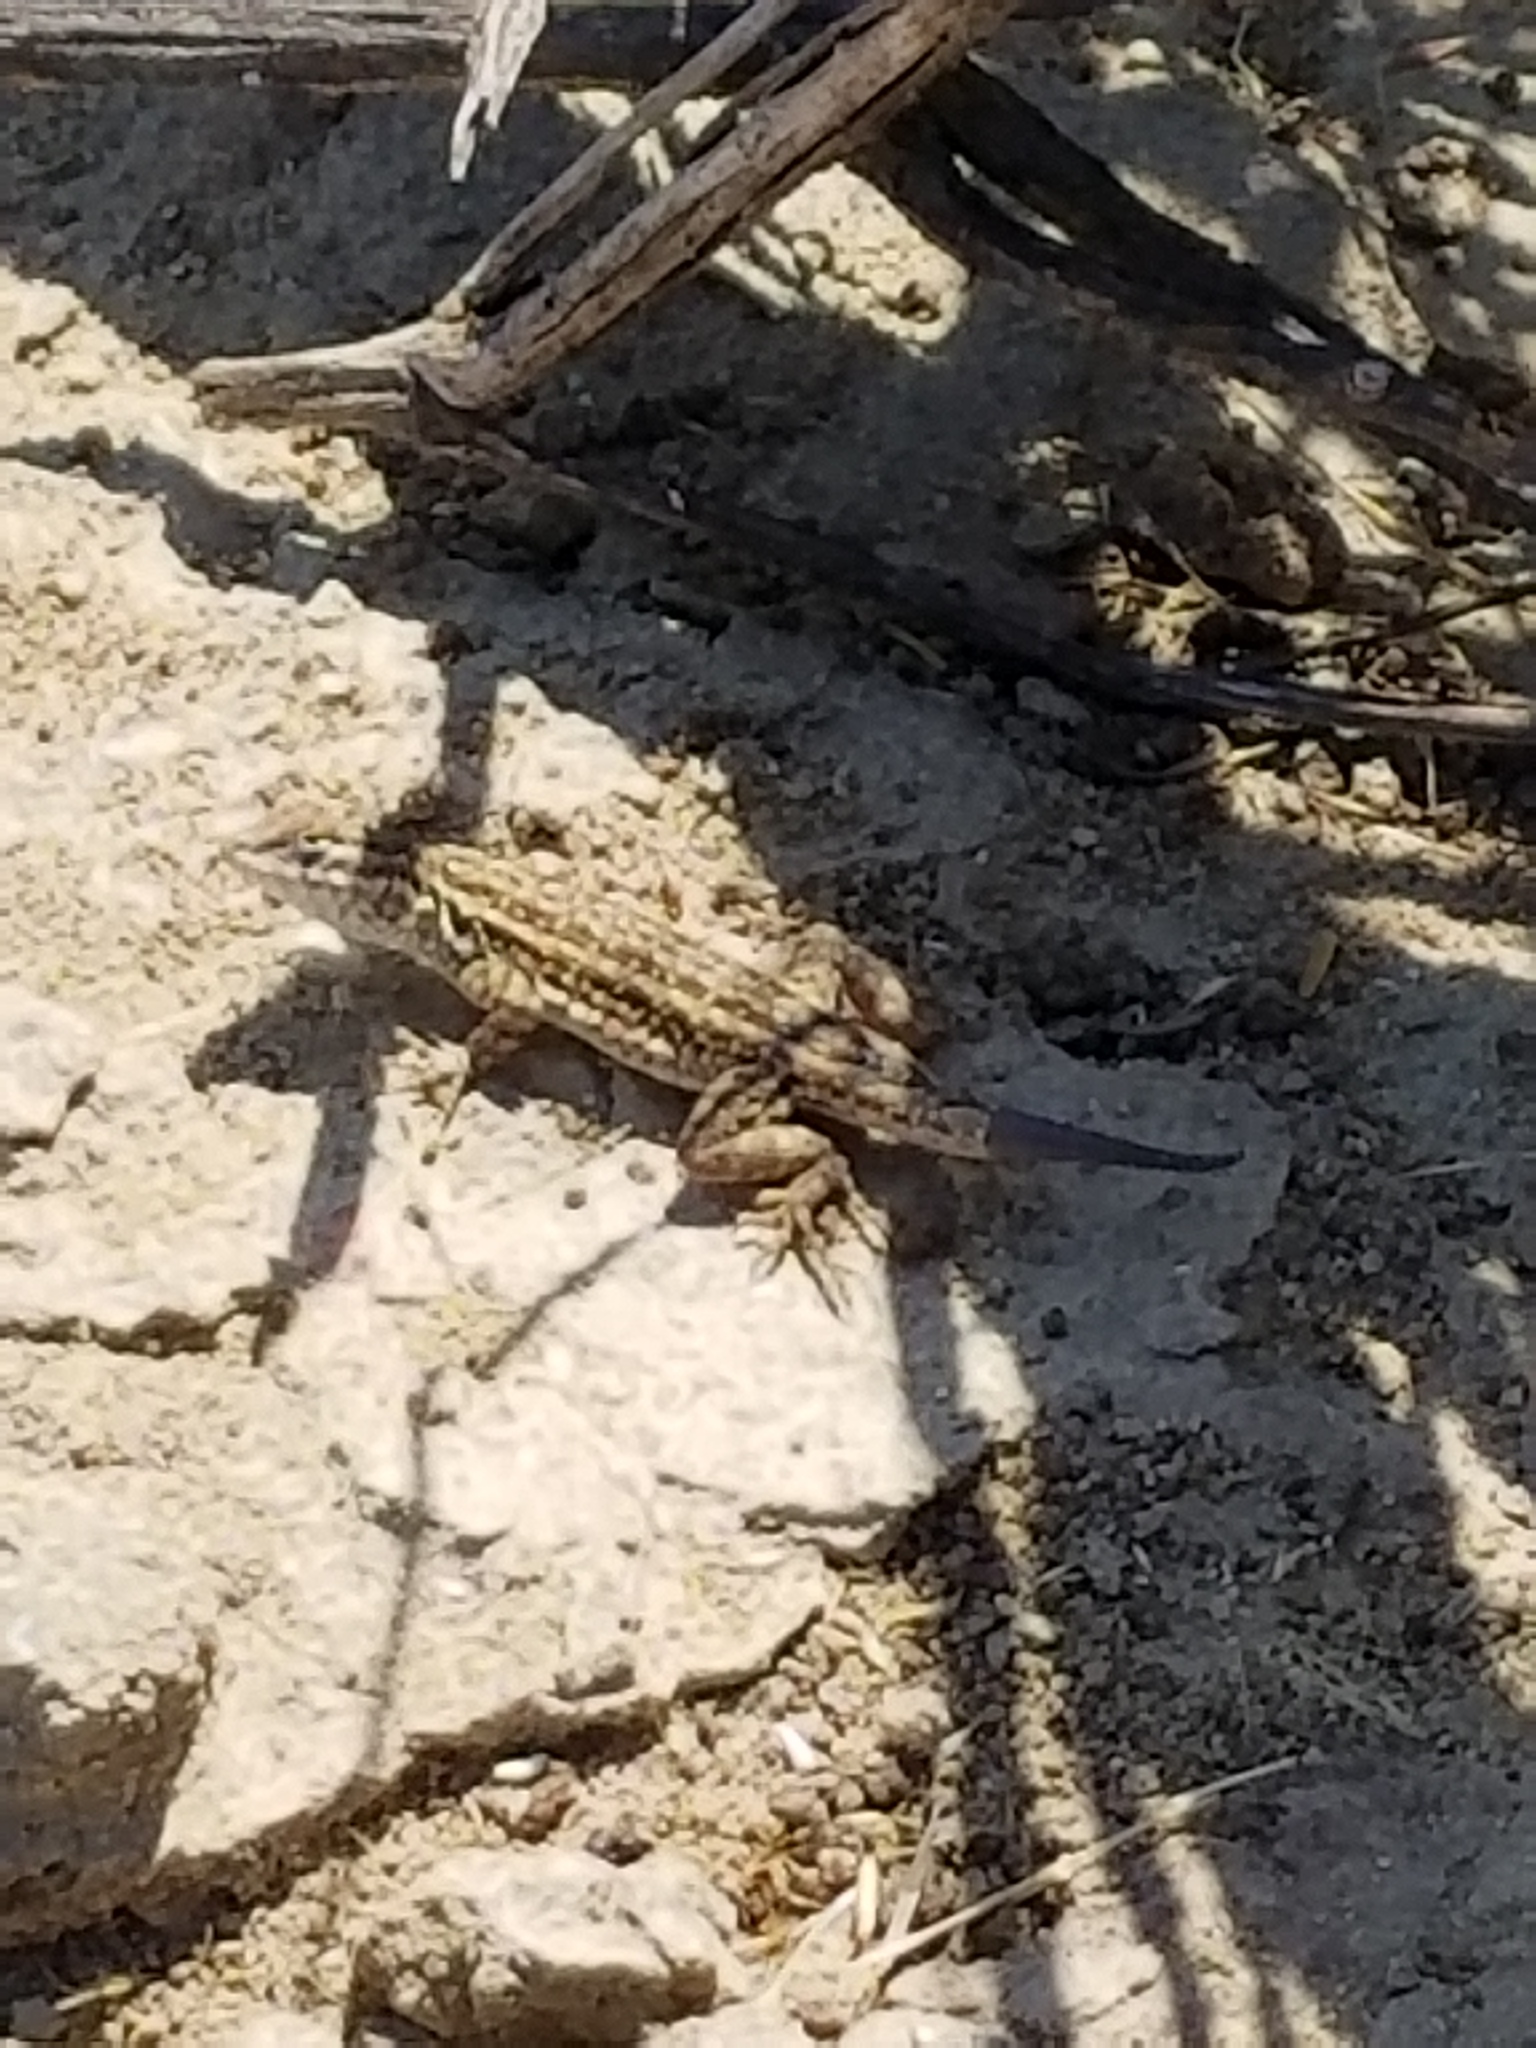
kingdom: Animalia
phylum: Chordata
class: Squamata
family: Phrynosomatidae
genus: Uta
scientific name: Uta stansburiana
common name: Side-blotched lizard
